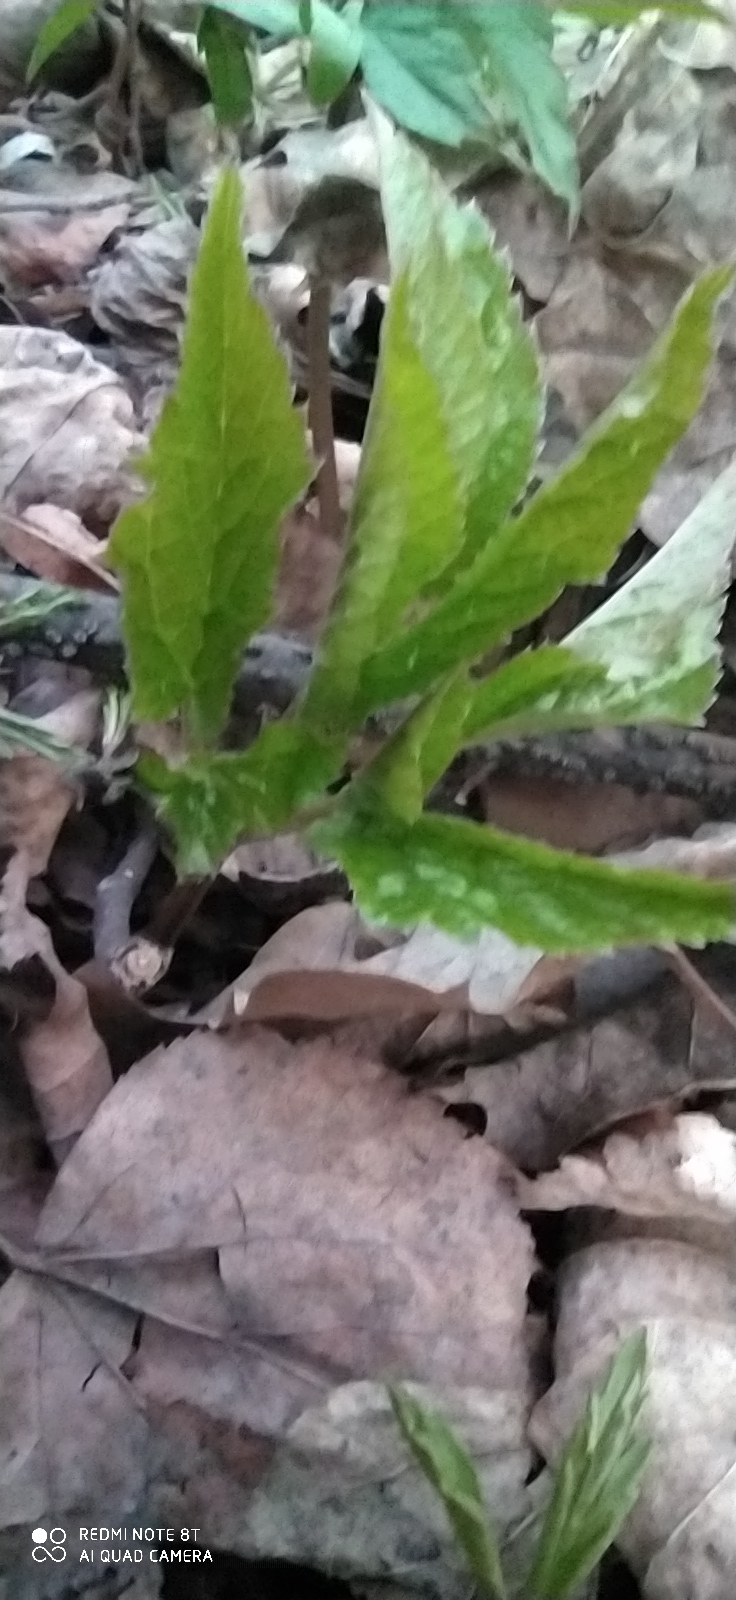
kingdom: Plantae
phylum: Tracheophyta
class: Magnoliopsida
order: Apiales
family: Apiaceae
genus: Aegopodium
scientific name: Aegopodium podagraria
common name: Ground-elder
